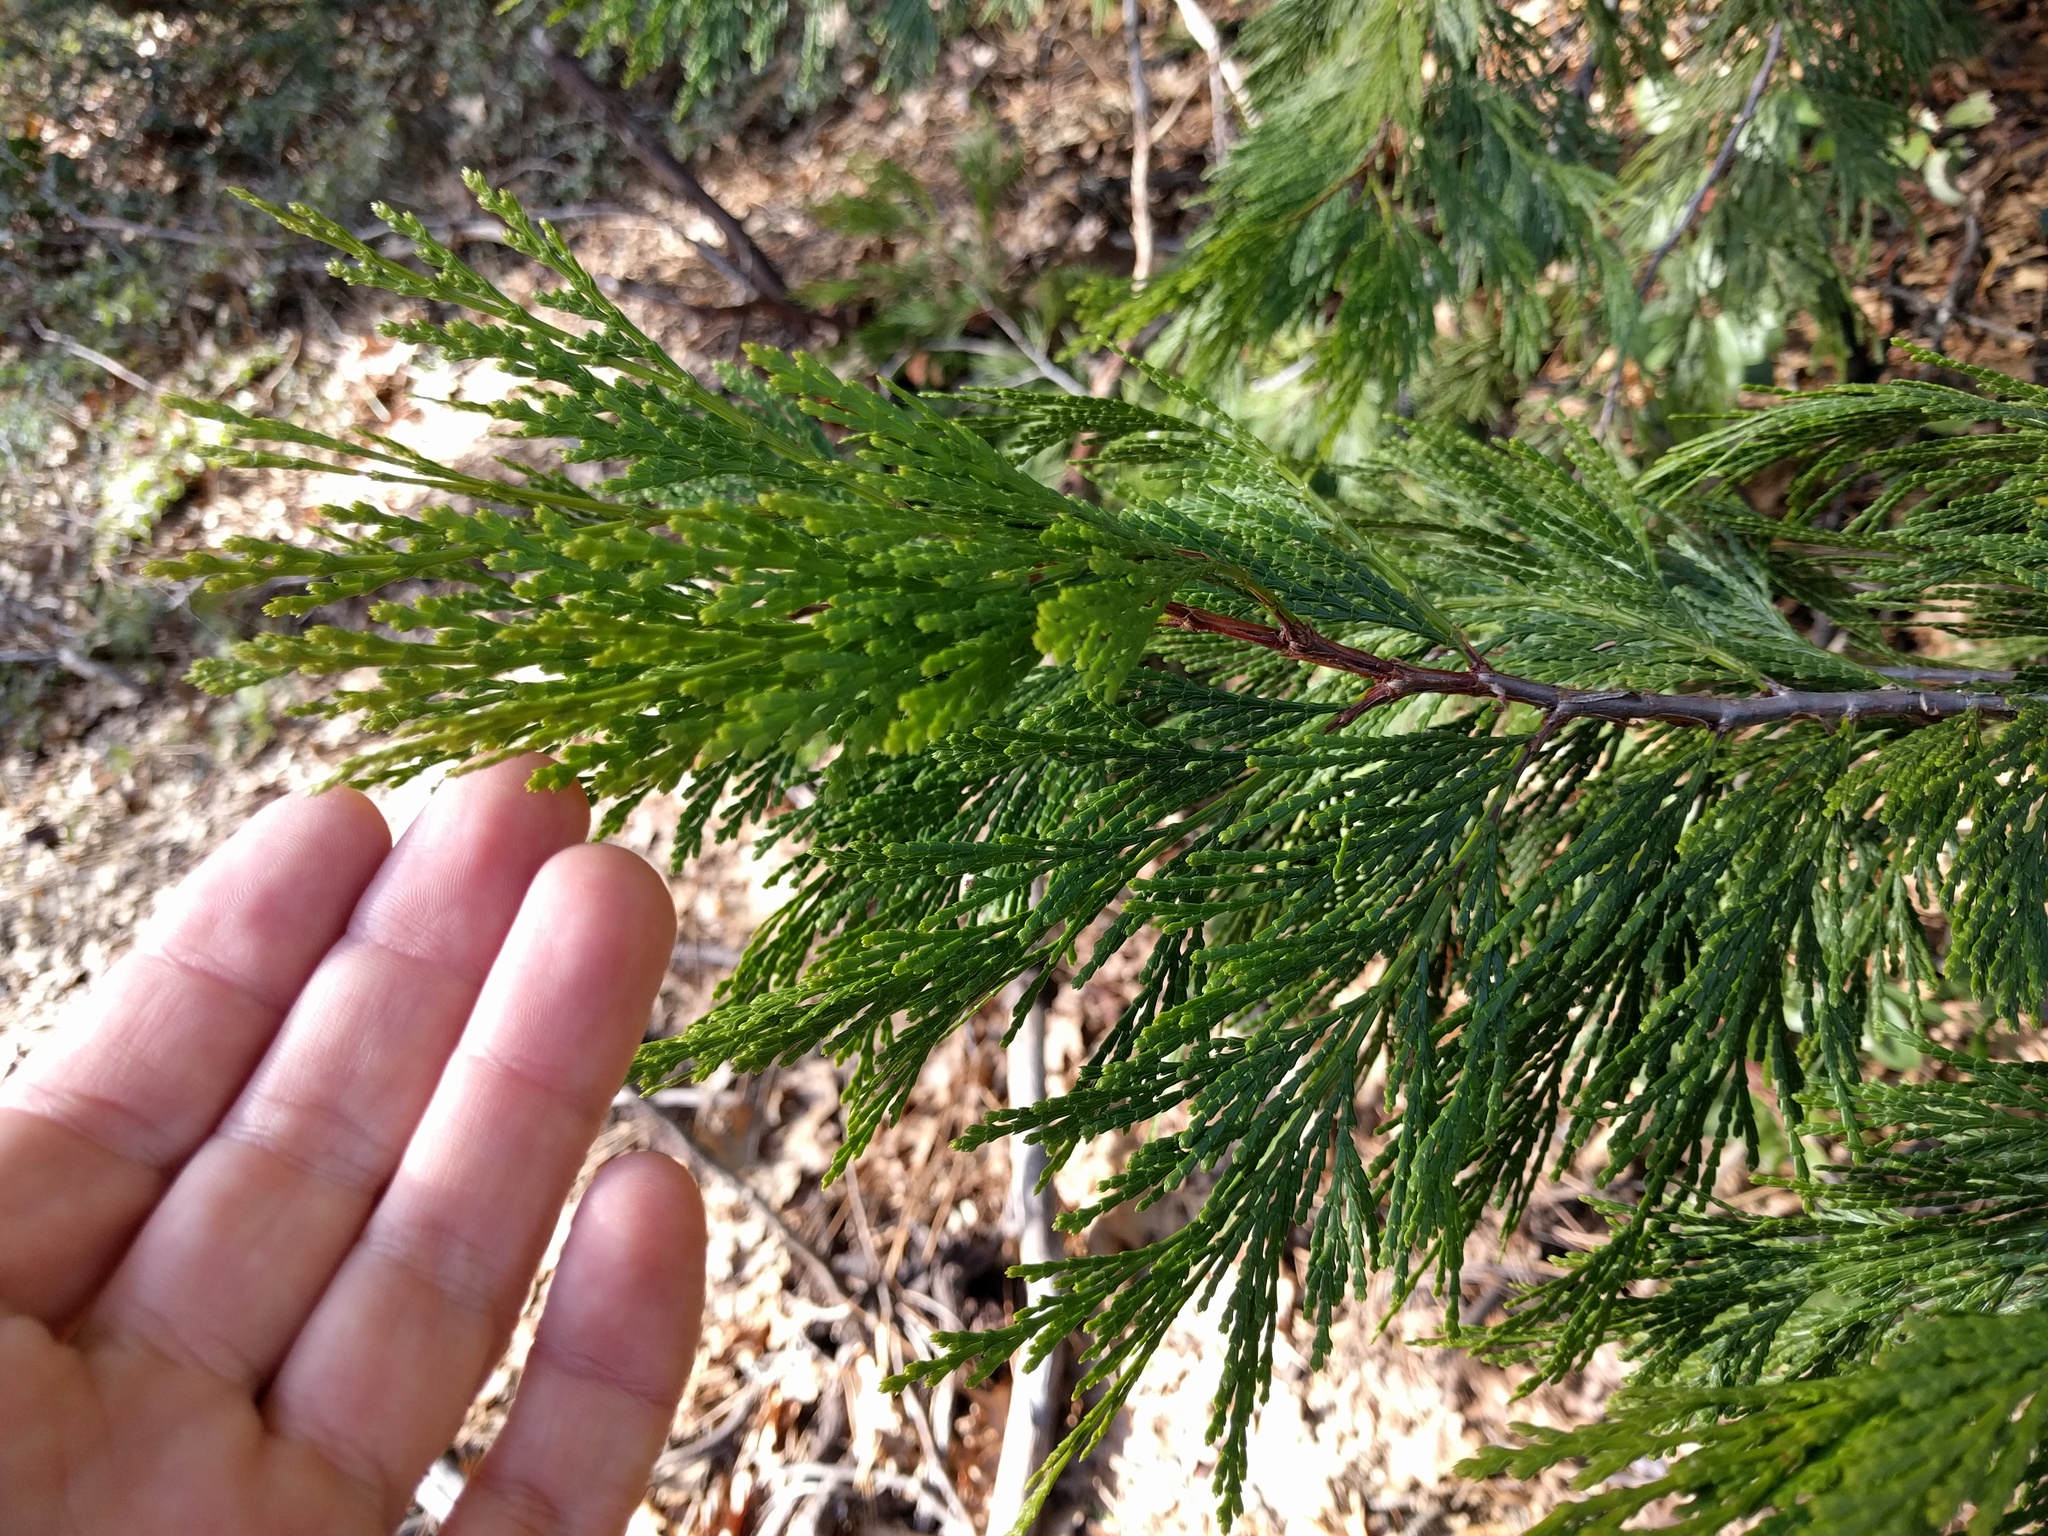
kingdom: Plantae
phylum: Tracheophyta
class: Pinopsida
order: Pinales
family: Cupressaceae
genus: Calocedrus
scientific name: Calocedrus decurrens
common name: Californian incense-cedar
